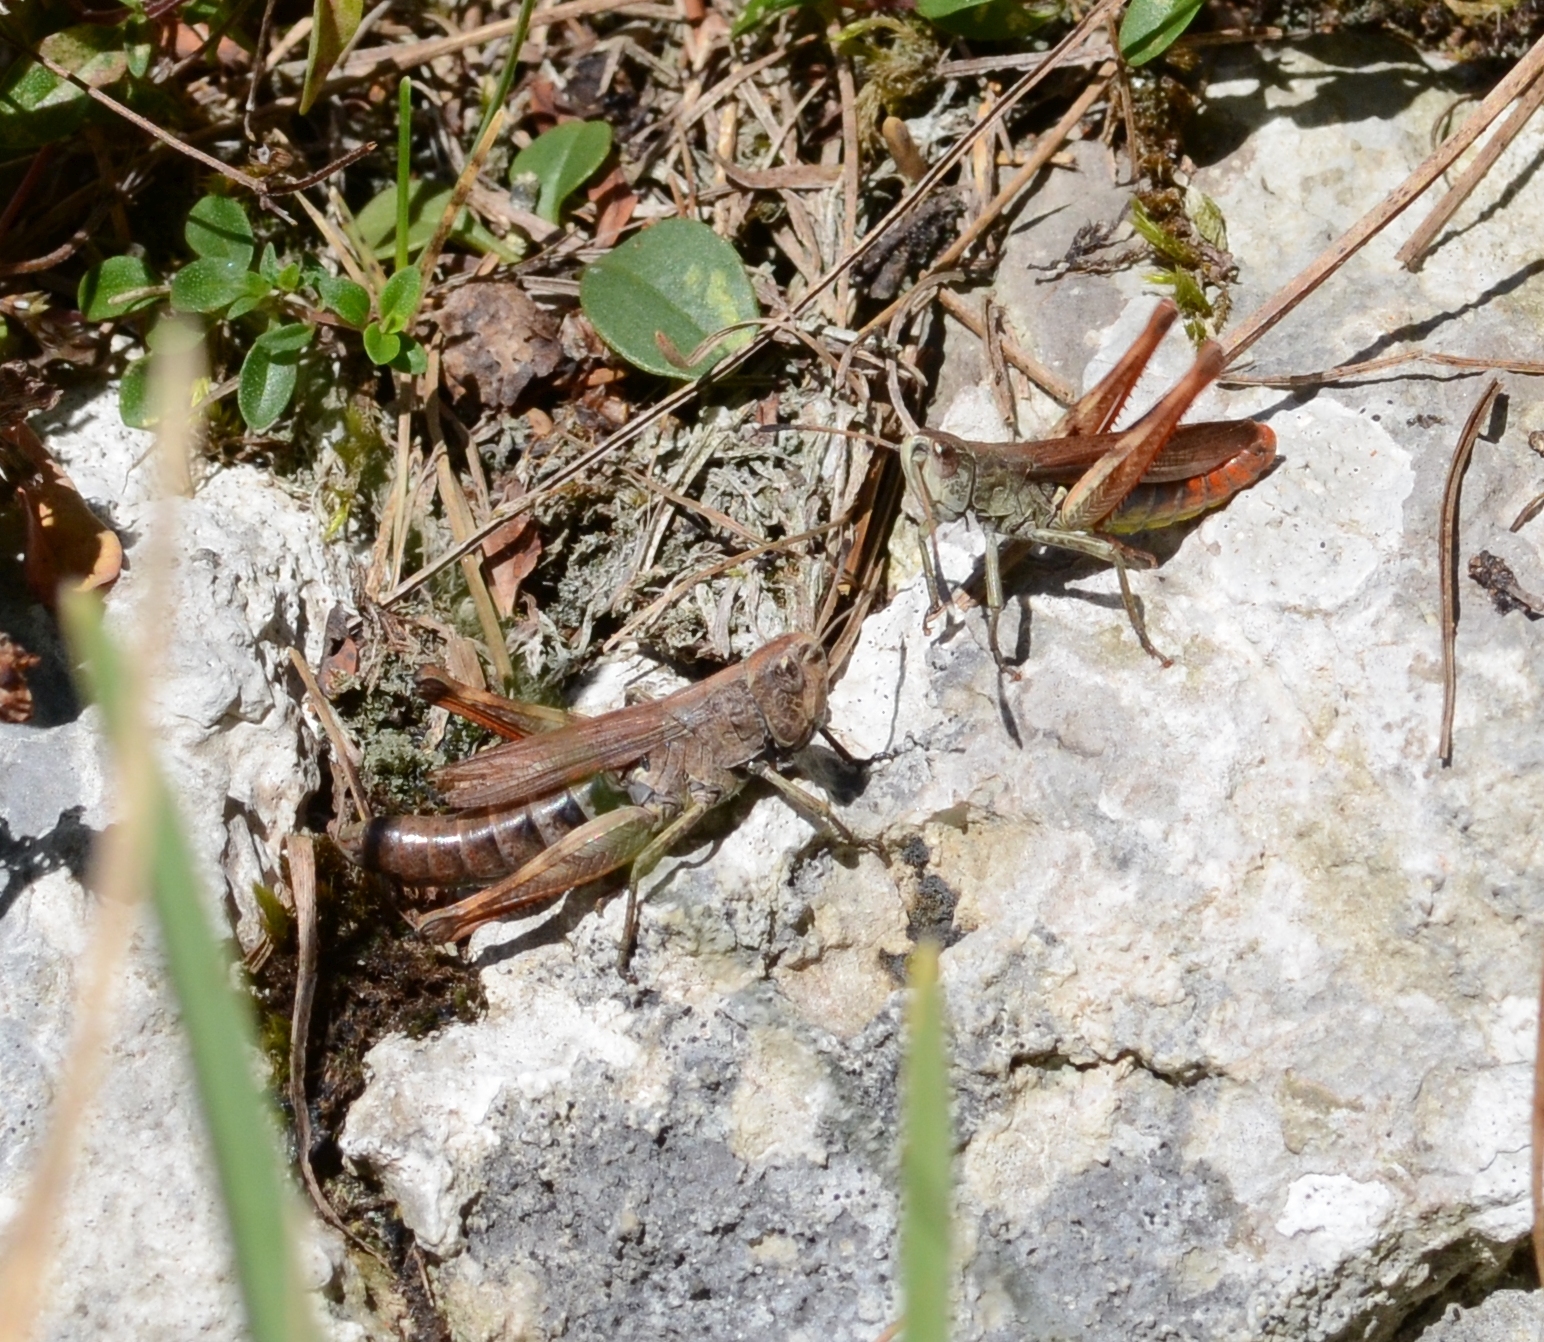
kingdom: Animalia
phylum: Arthropoda
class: Insecta
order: Orthoptera
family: Acrididae
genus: Gomphocerippus
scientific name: Gomphocerippus rufus
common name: Rufous grasshopper
